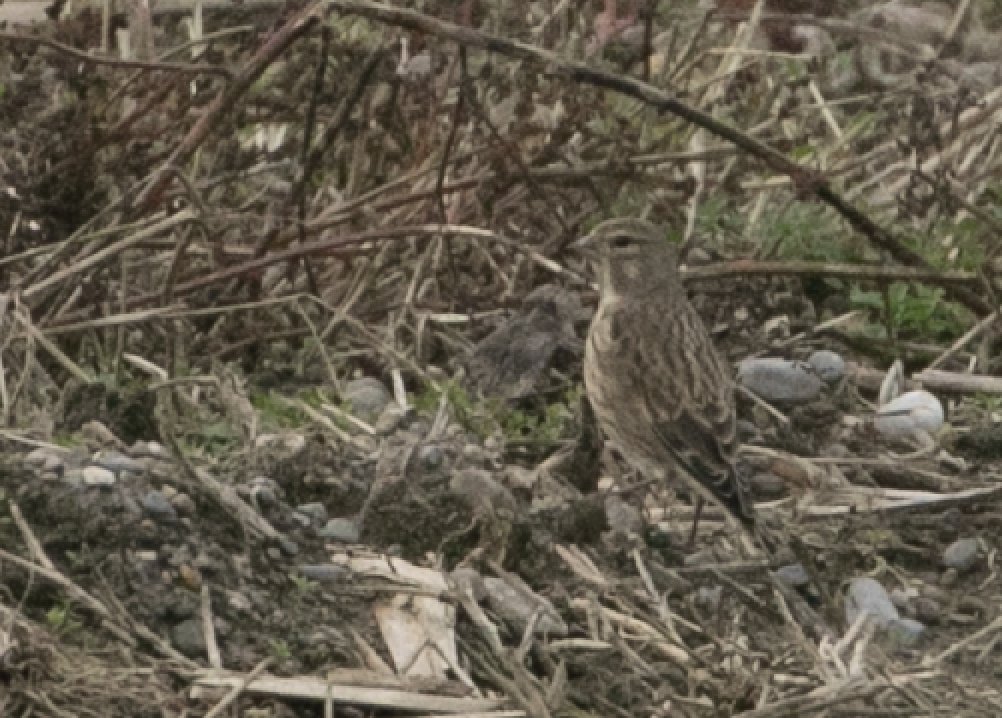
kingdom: Animalia
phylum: Chordata
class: Aves
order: Passeriformes
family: Fringillidae
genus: Linaria
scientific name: Linaria cannabina
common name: Common linnet
